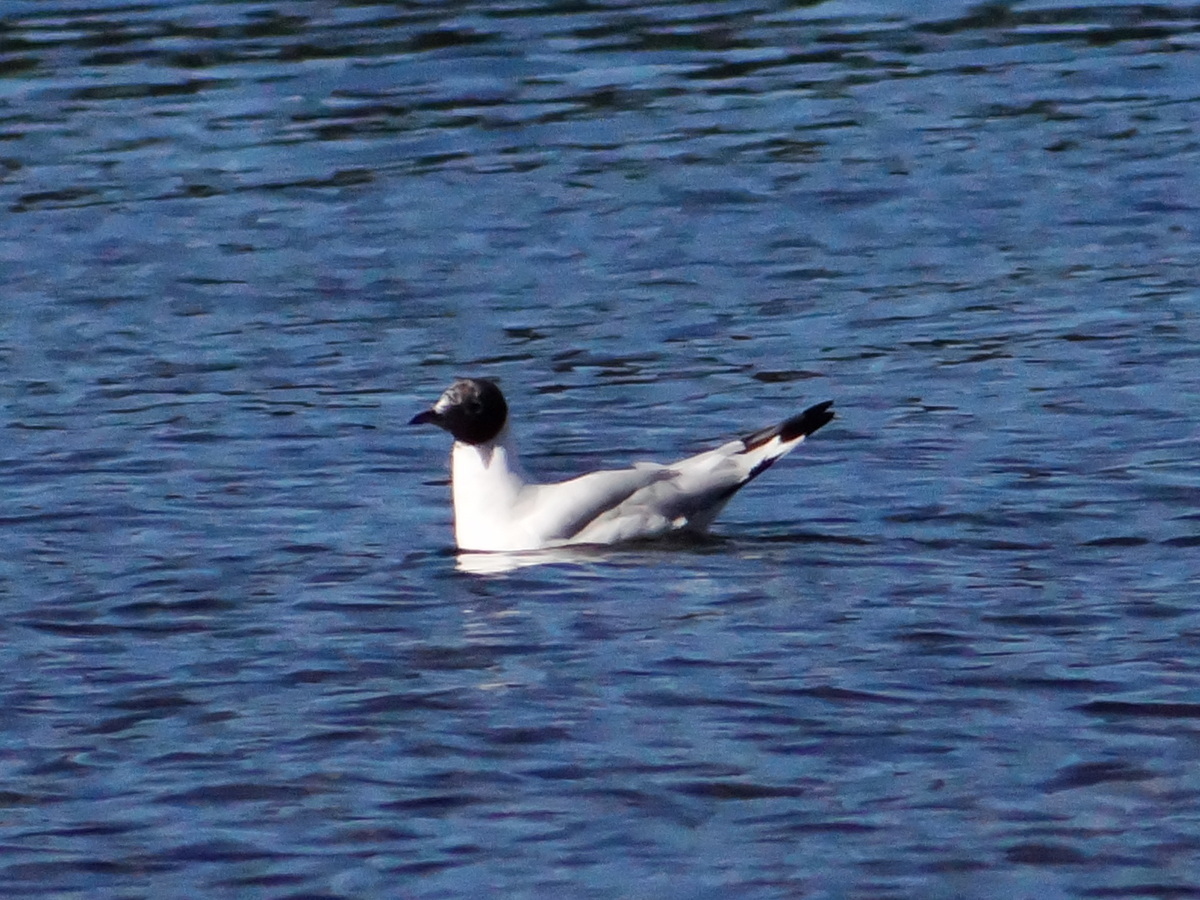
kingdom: Animalia
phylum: Chordata
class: Aves
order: Charadriiformes
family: Laridae
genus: Chroicocephalus
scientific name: Chroicocephalus maculipennis
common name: Brown-hooded gull
